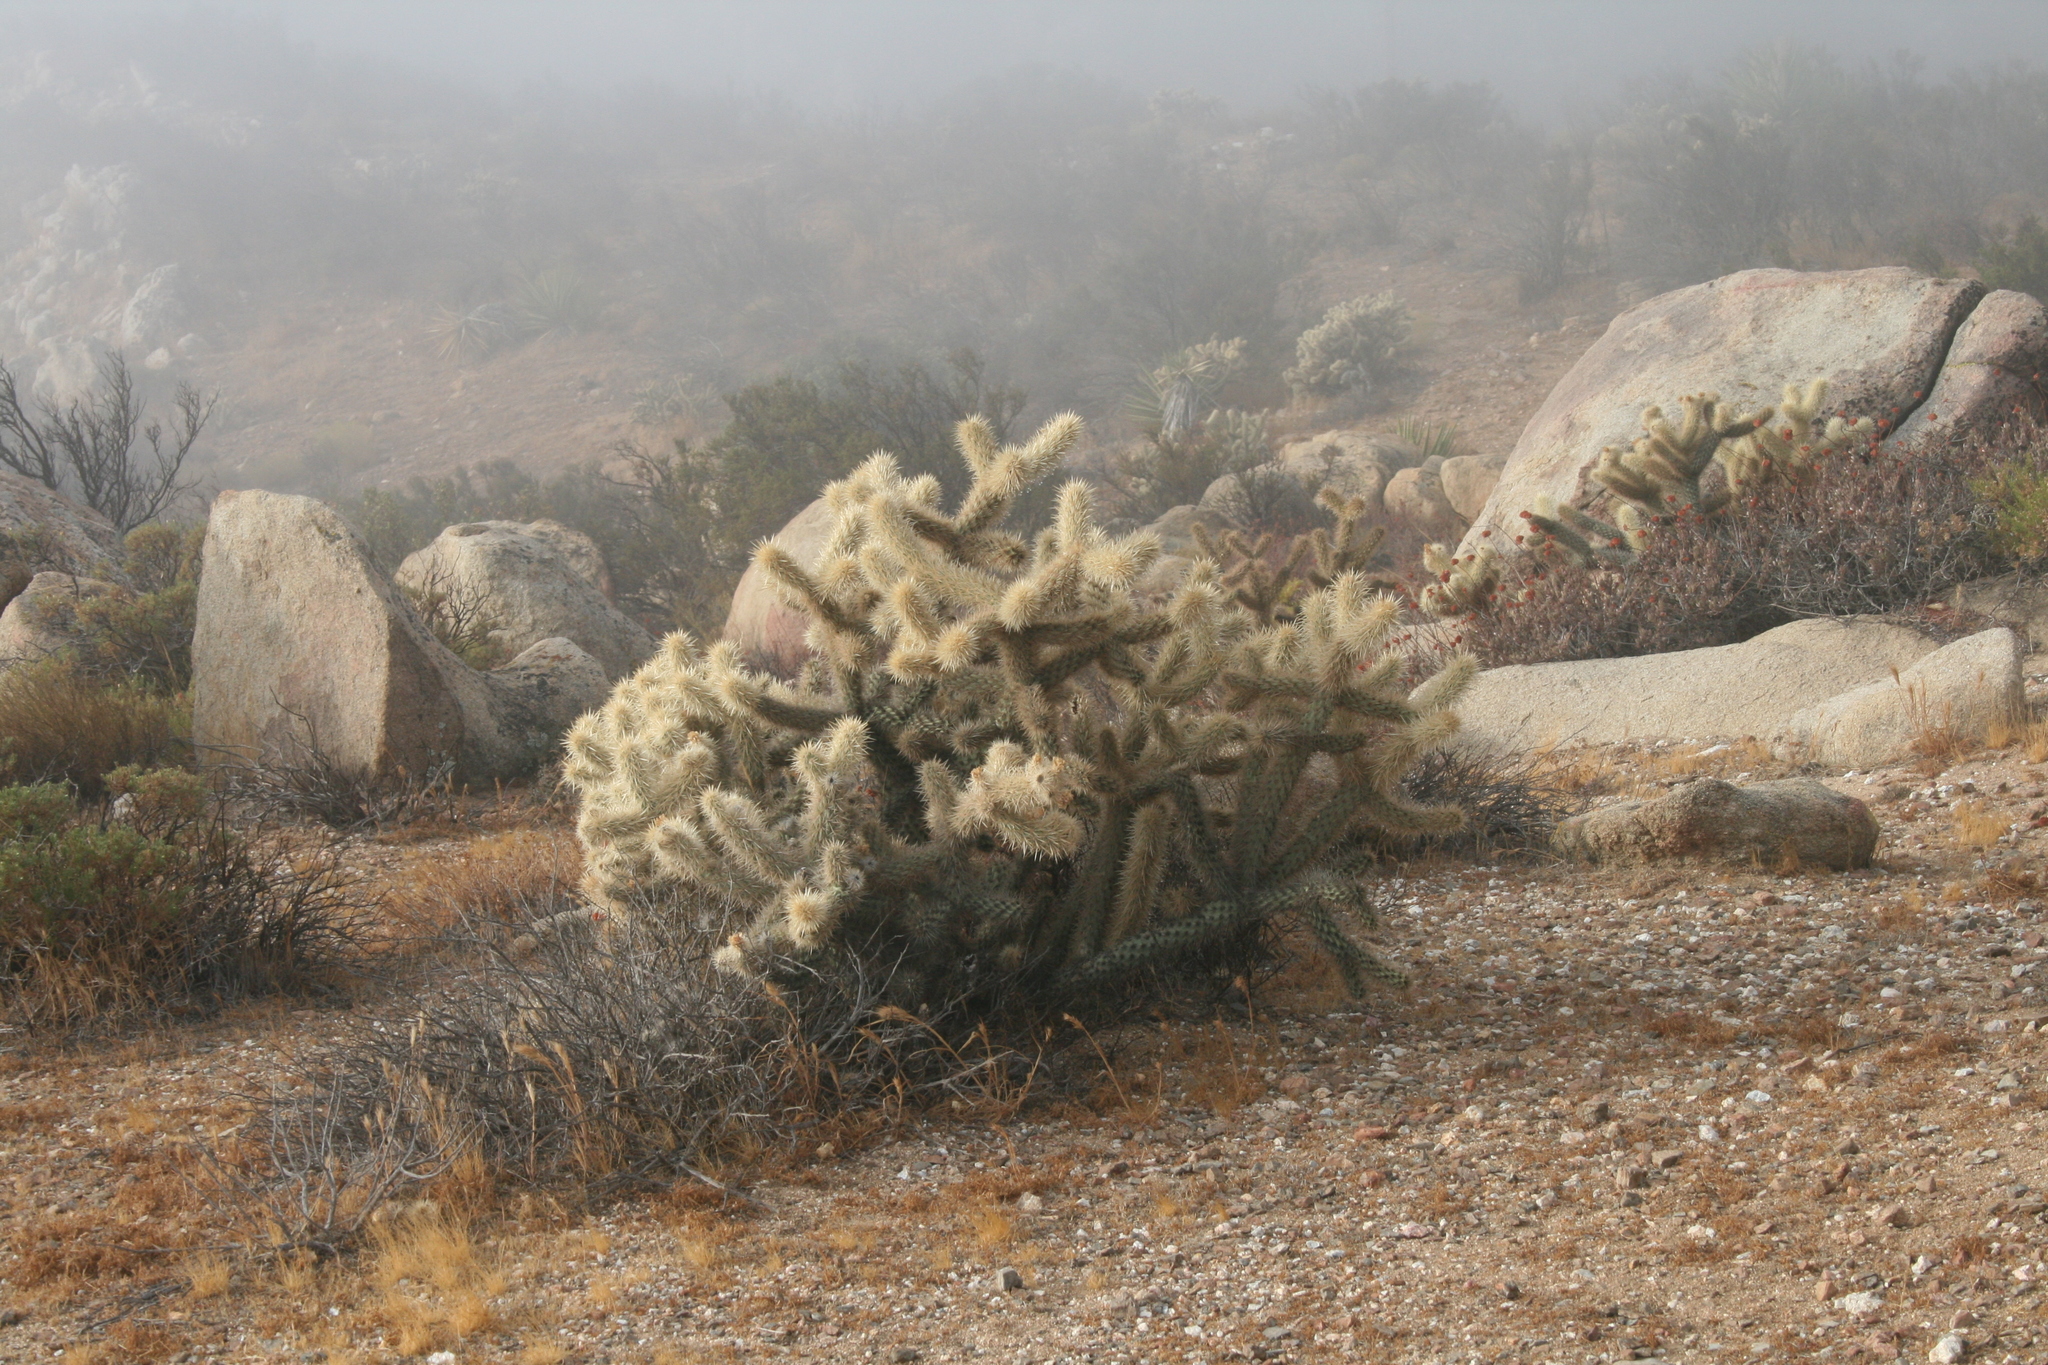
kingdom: Plantae
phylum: Tracheophyta
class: Magnoliopsida
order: Caryophyllales
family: Cactaceae
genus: Cylindropuntia
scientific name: Cylindropuntia wolfii
